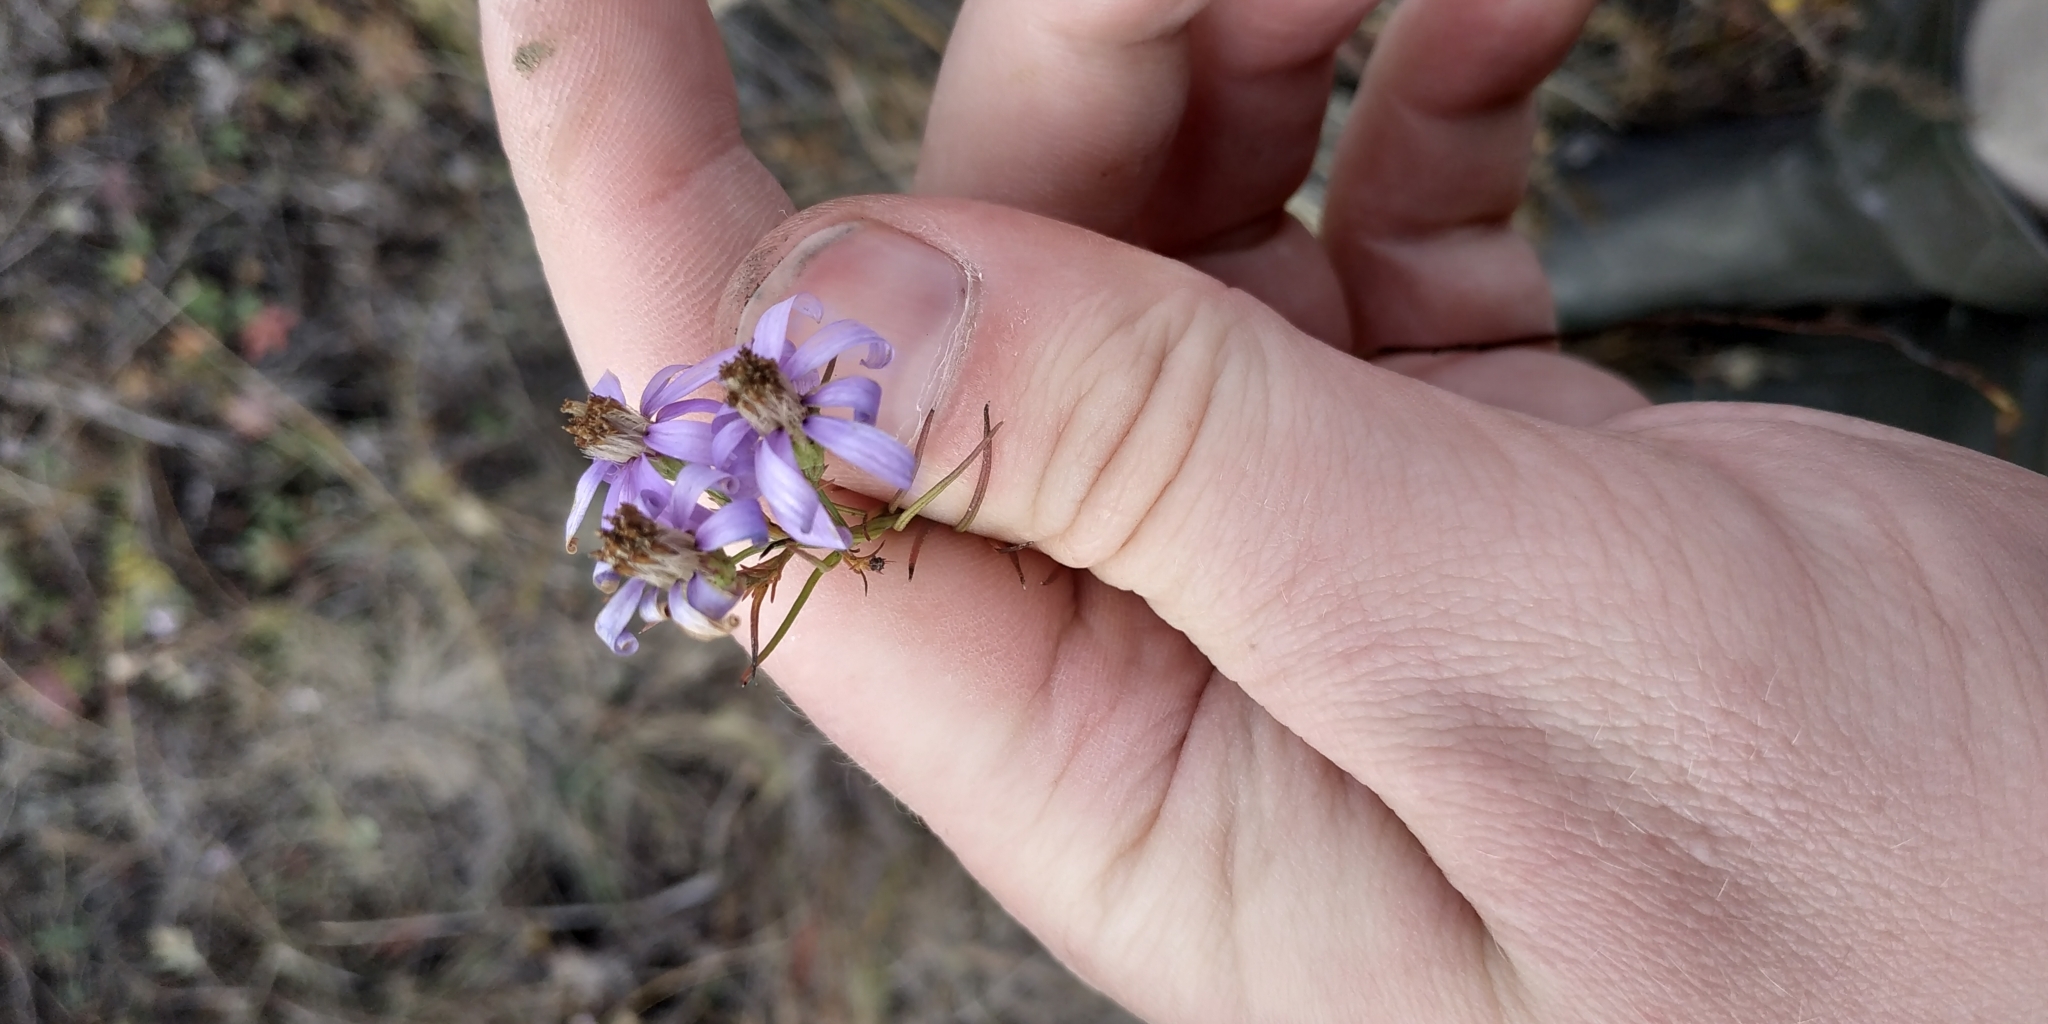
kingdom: Plantae
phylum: Tracheophyta
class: Magnoliopsida
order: Asterales
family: Asteraceae
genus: Galatella
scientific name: Galatella angustissima
